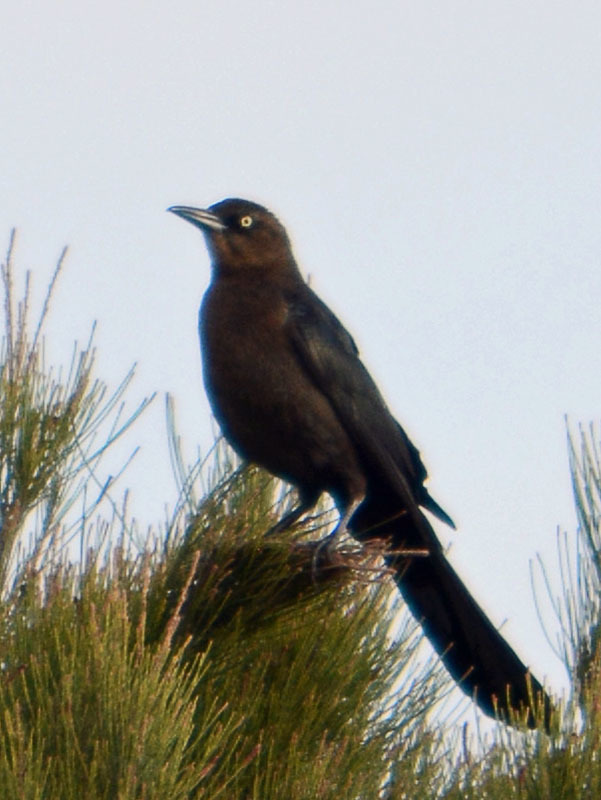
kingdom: Animalia
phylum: Chordata
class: Aves
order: Passeriformes
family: Icteridae
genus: Quiscalus
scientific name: Quiscalus mexicanus
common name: Great-tailed grackle
